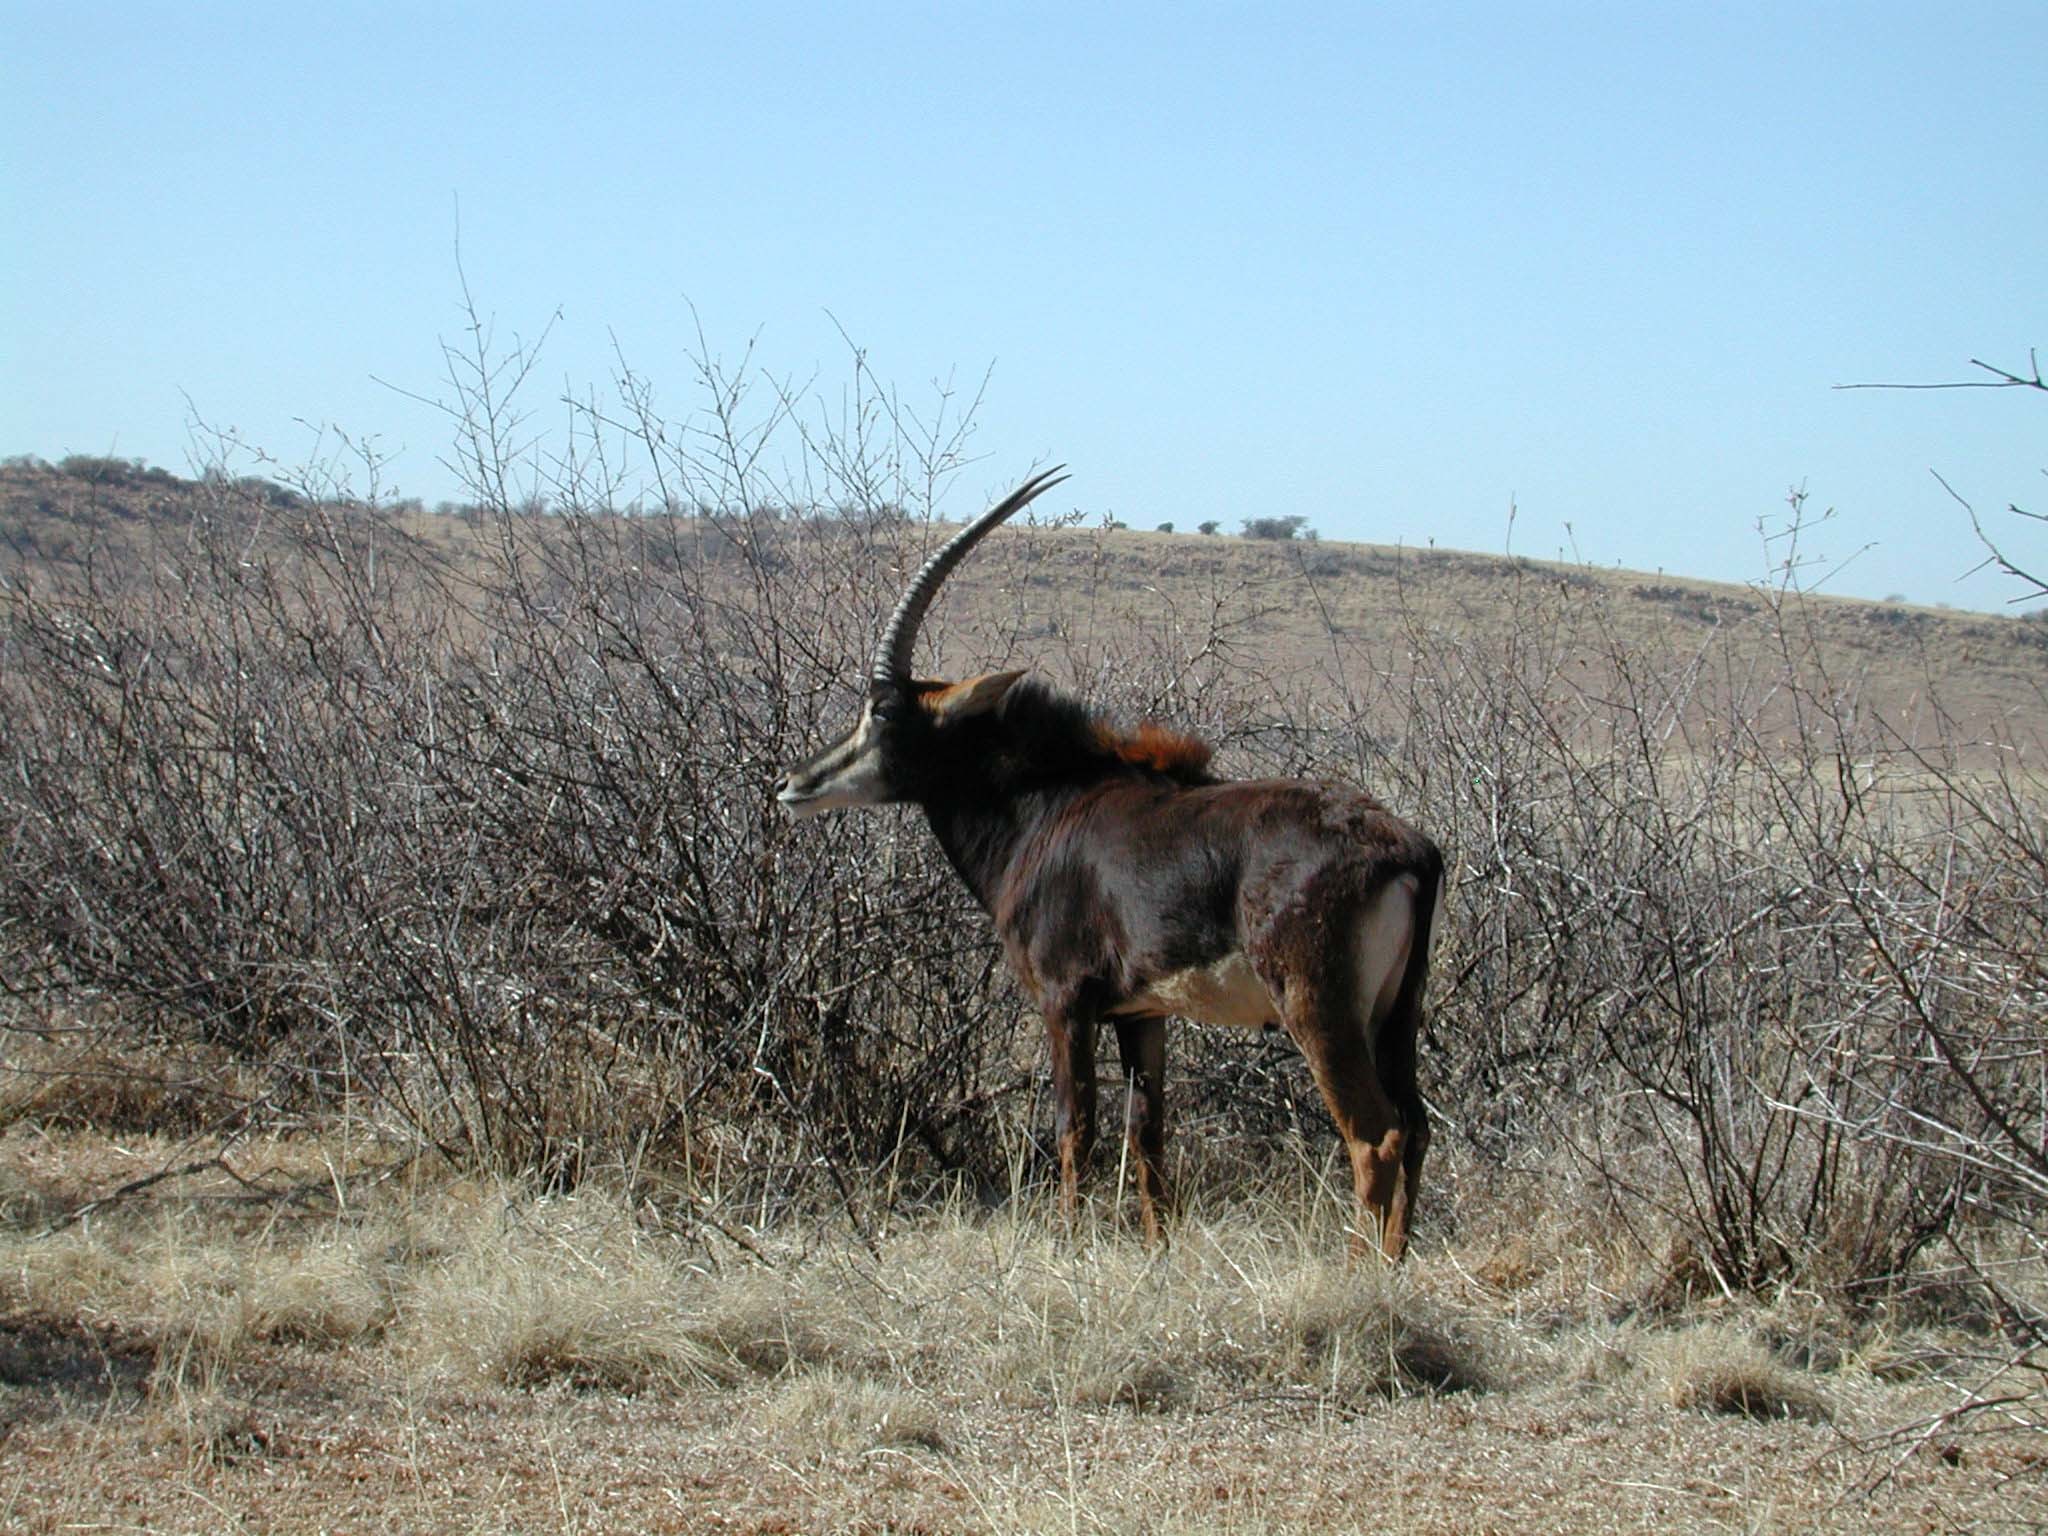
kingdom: Animalia
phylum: Chordata
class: Mammalia
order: Artiodactyla
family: Bovidae
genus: Hippotragus
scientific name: Hippotragus niger
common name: Sable antelope
